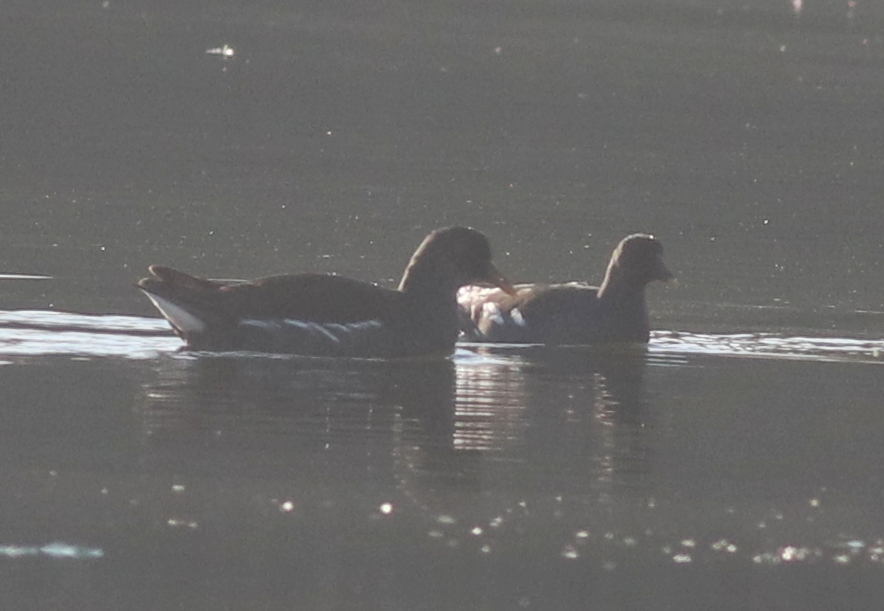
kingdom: Animalia
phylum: Chordata
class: Aves
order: Gruiformes
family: Rallidae
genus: Gallinula
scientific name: Gallinula chloropus
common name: Common moorhen
